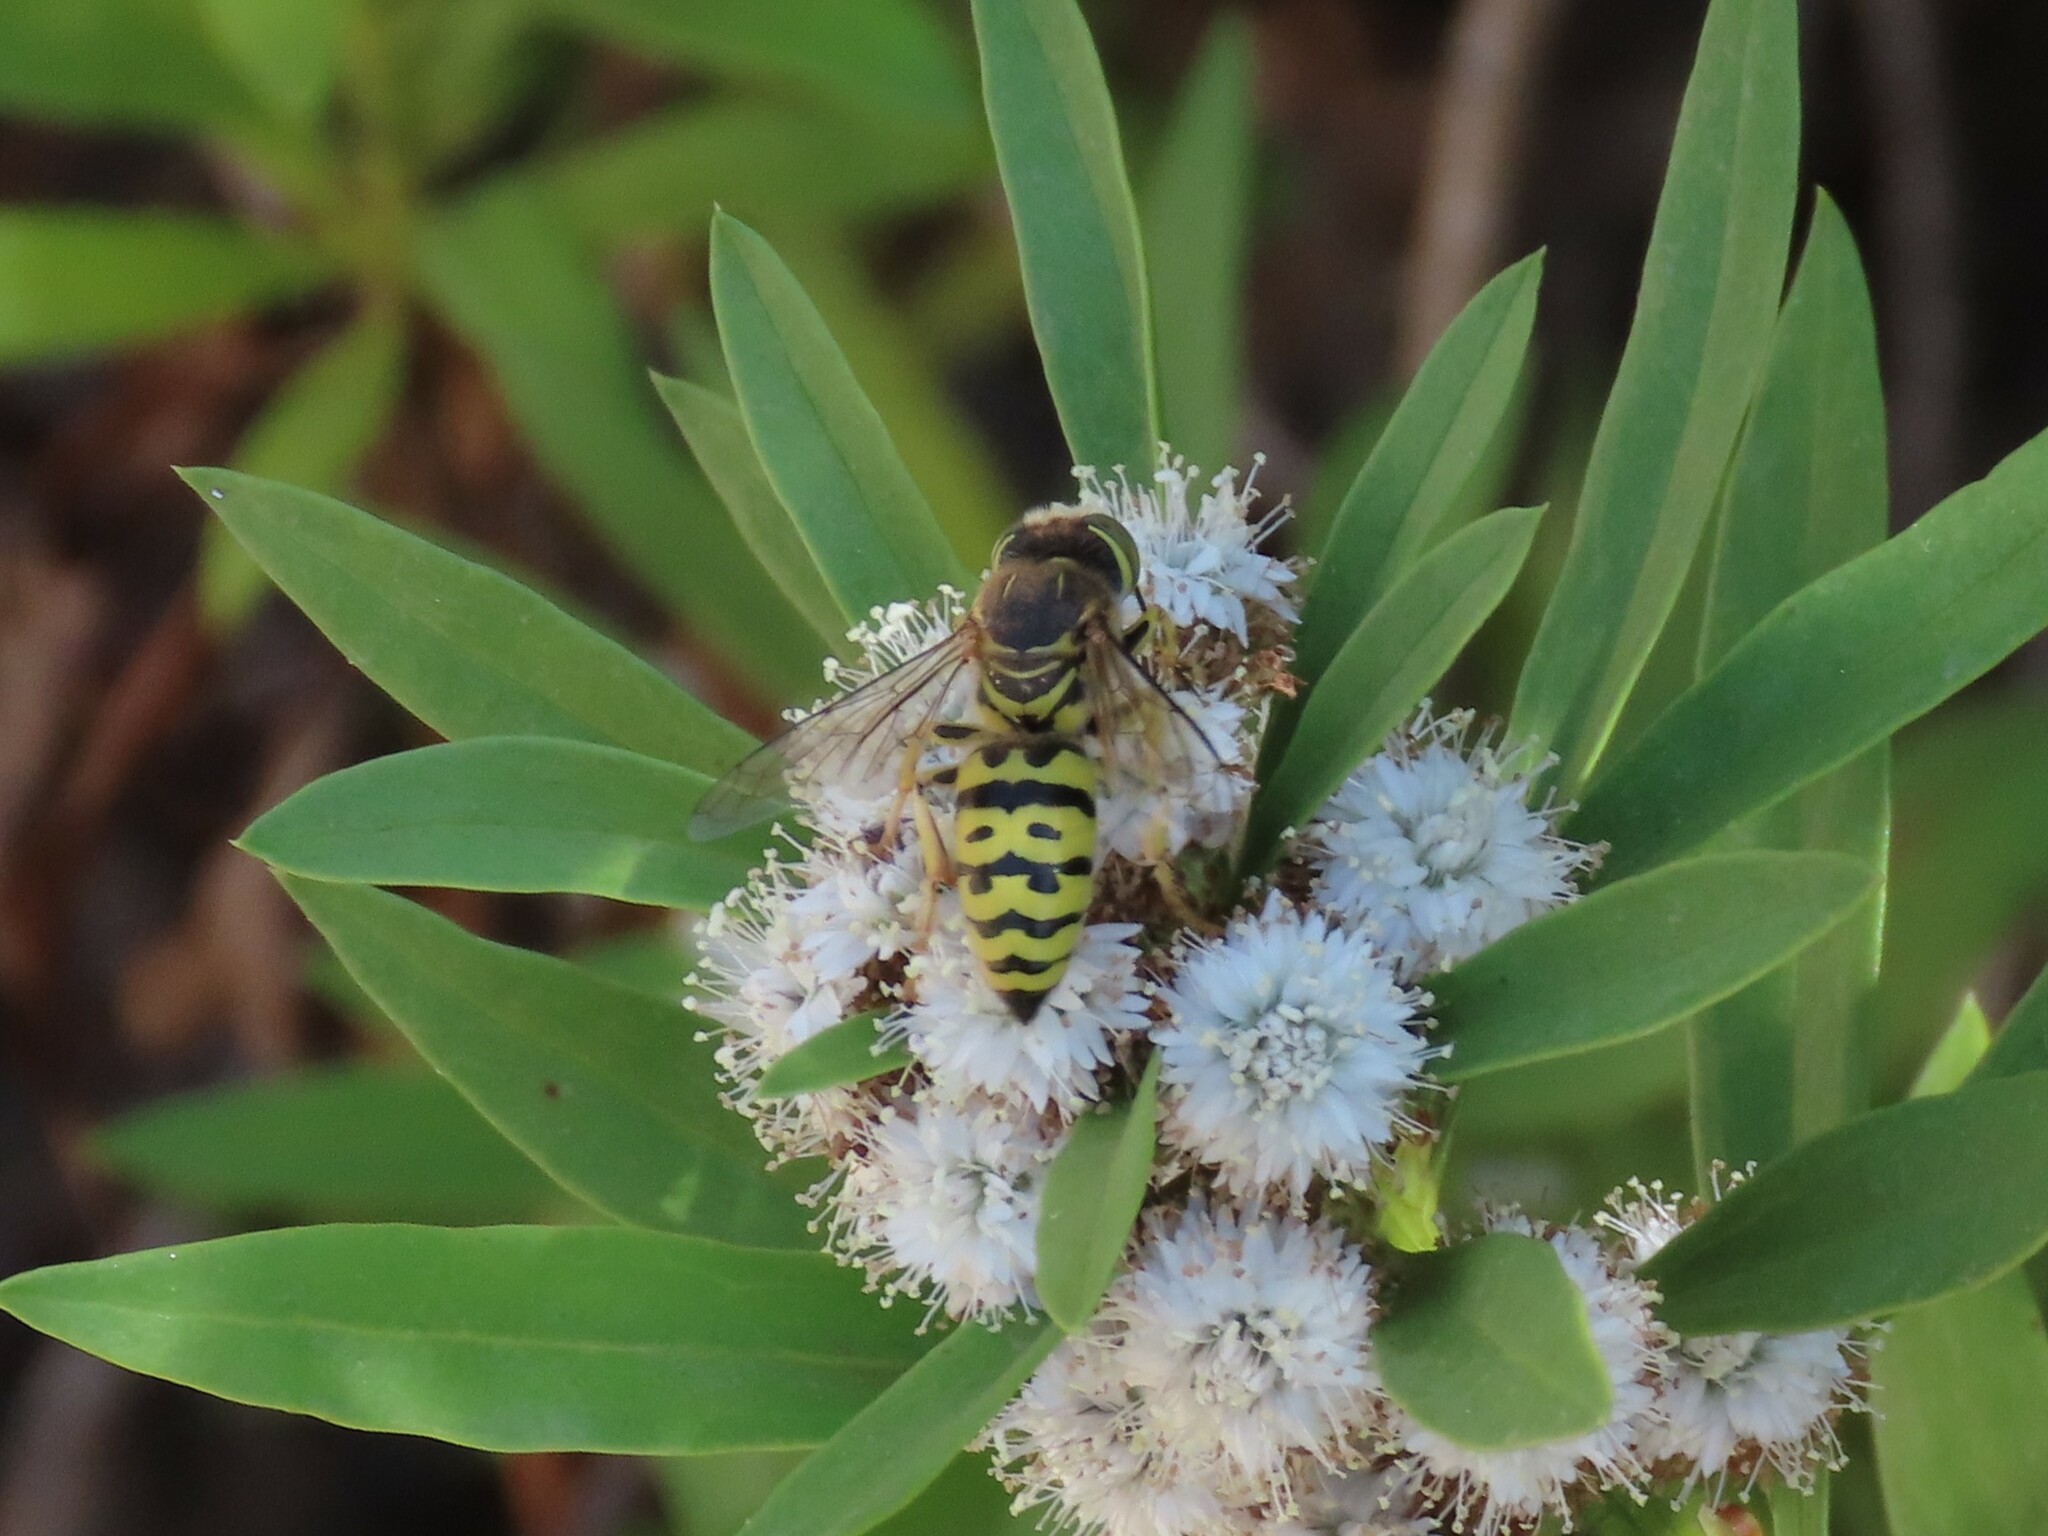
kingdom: Animalia
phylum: Arthropoda
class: Insecta
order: Hymenoptera
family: Crabronidae
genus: Bembix
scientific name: Bembix oculata
